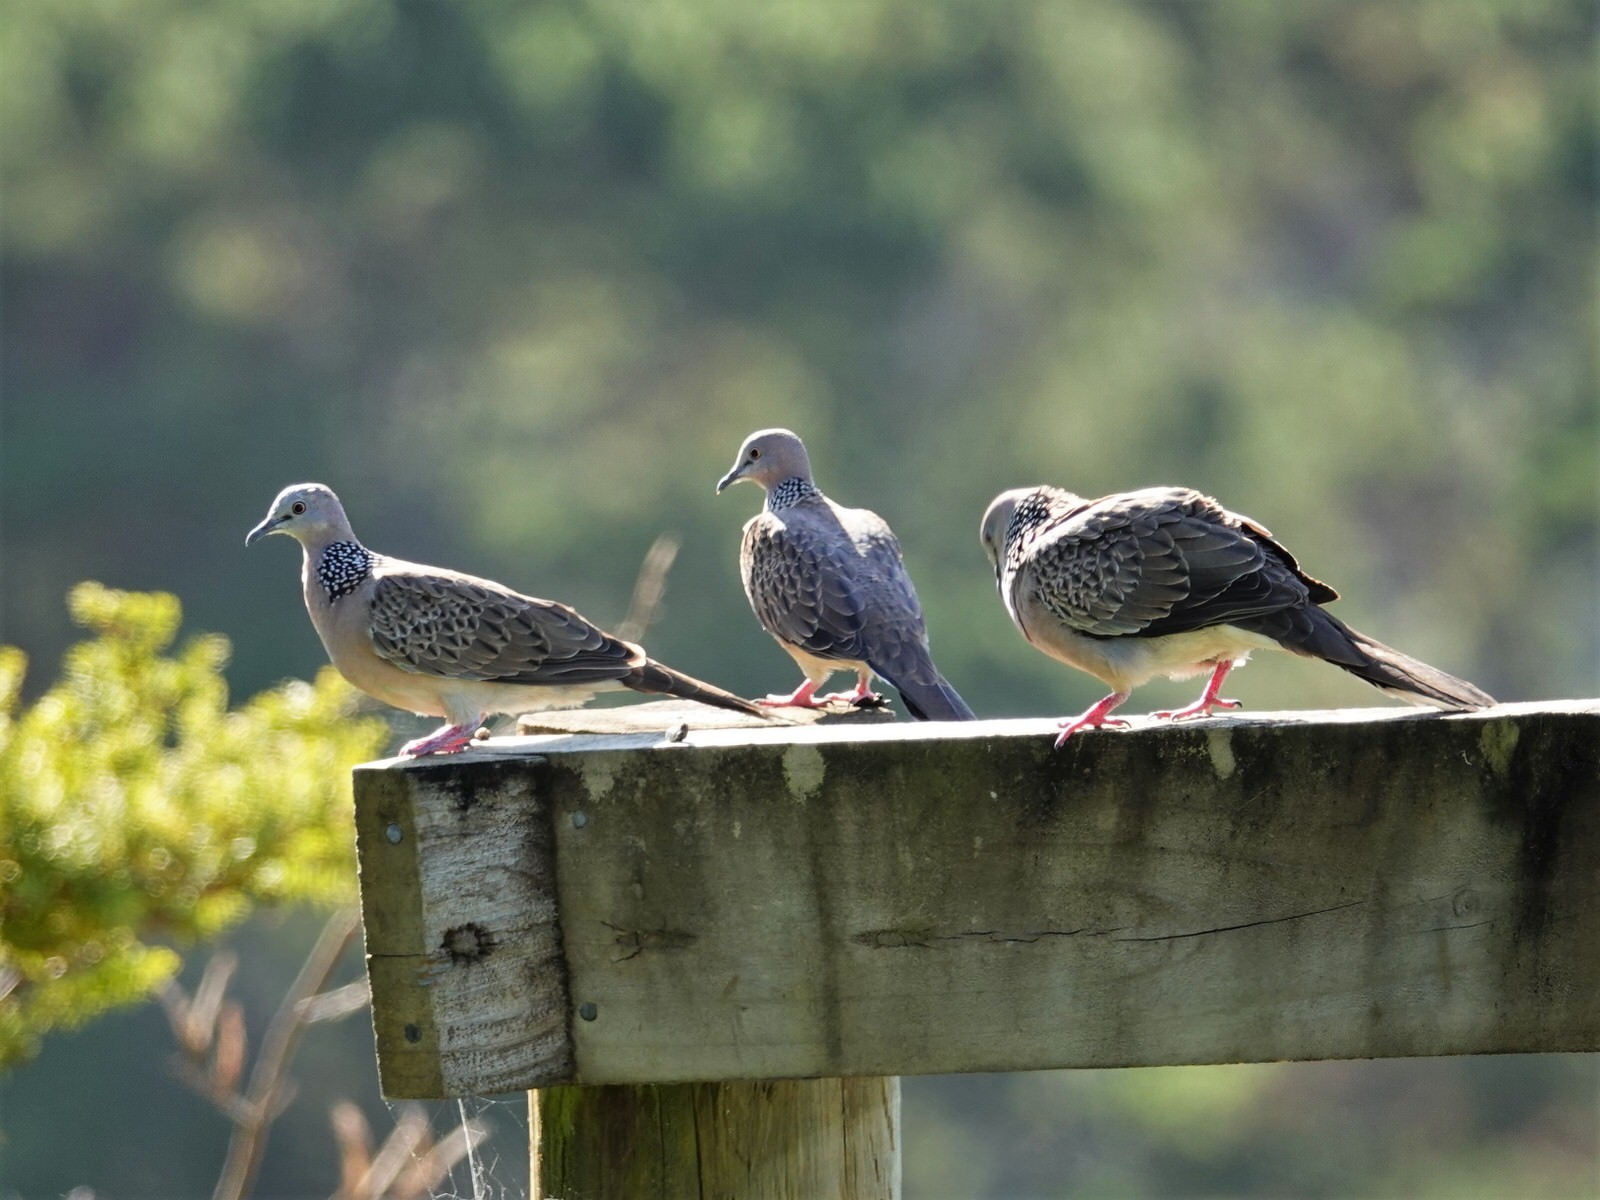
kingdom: Animalia
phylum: Chordata
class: Aves
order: Columbiformes
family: Columbidae
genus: Spilopelia
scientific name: Spilopelia chinensis
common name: Spotted dove
